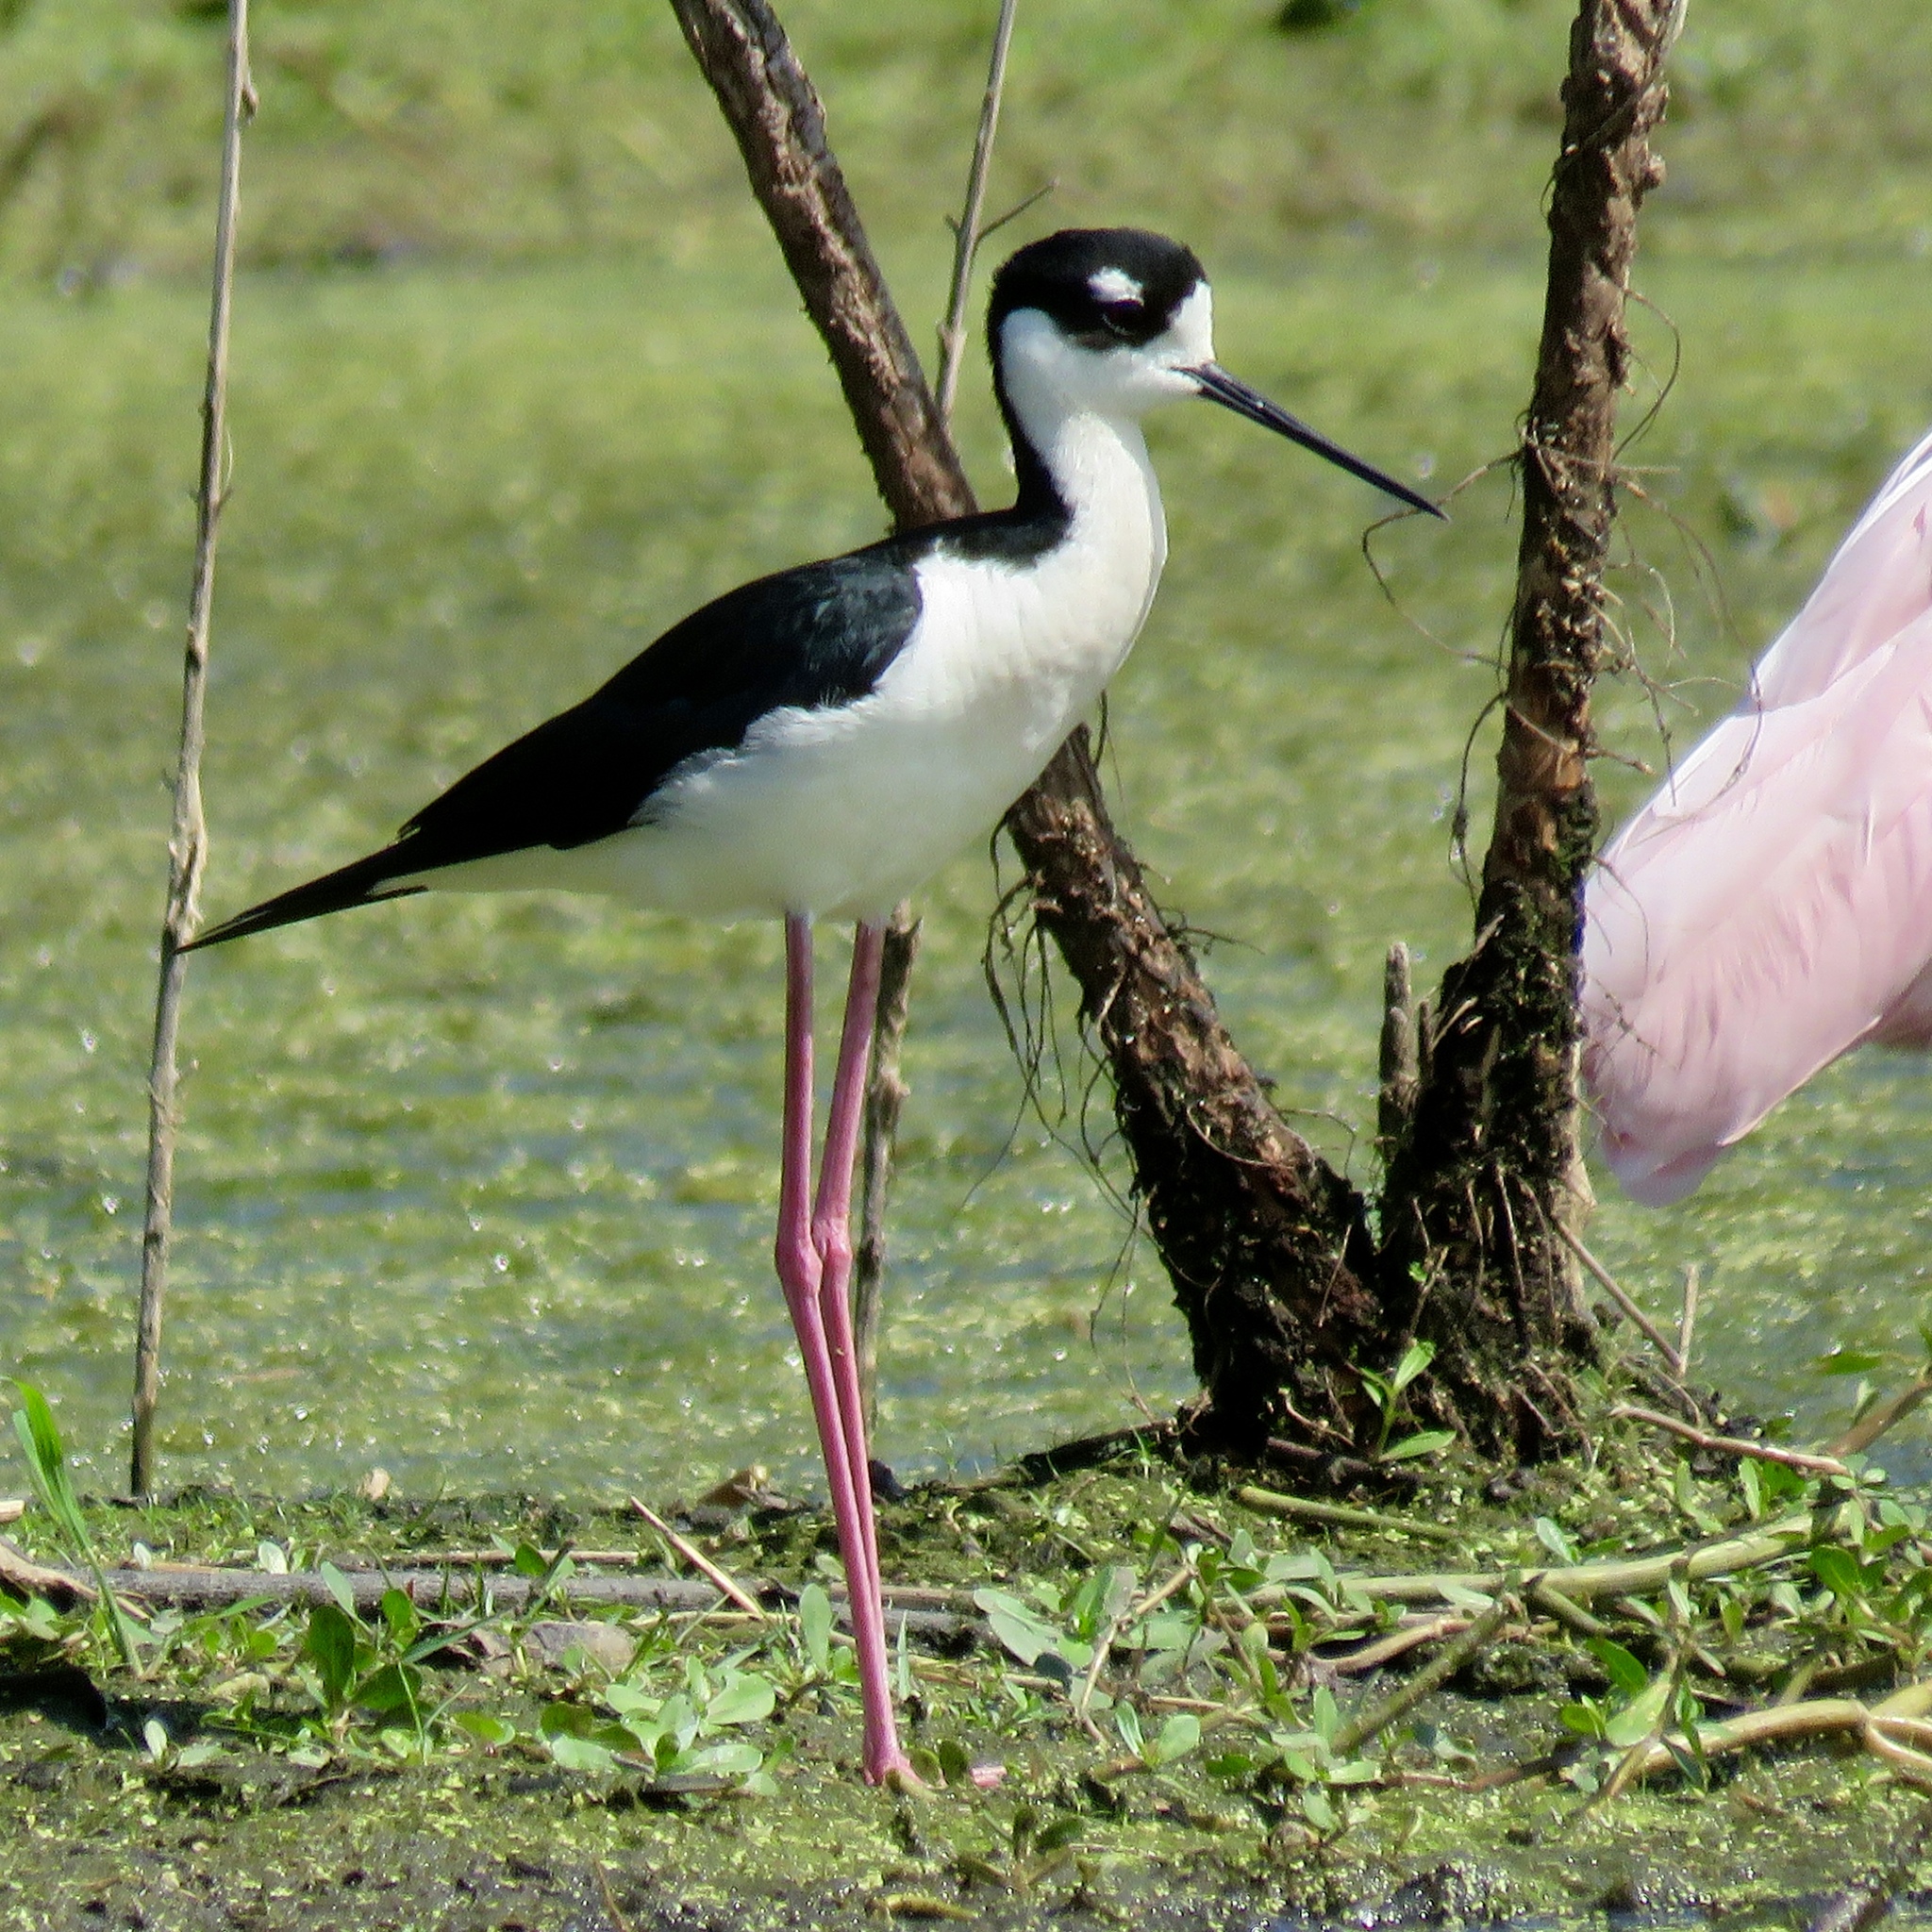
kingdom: Animalia
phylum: Chordata
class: Aves
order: Charadriiformes
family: Recurvirostridae
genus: Himantopus
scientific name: Himantopus mexicanus
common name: Black-necked stilt
